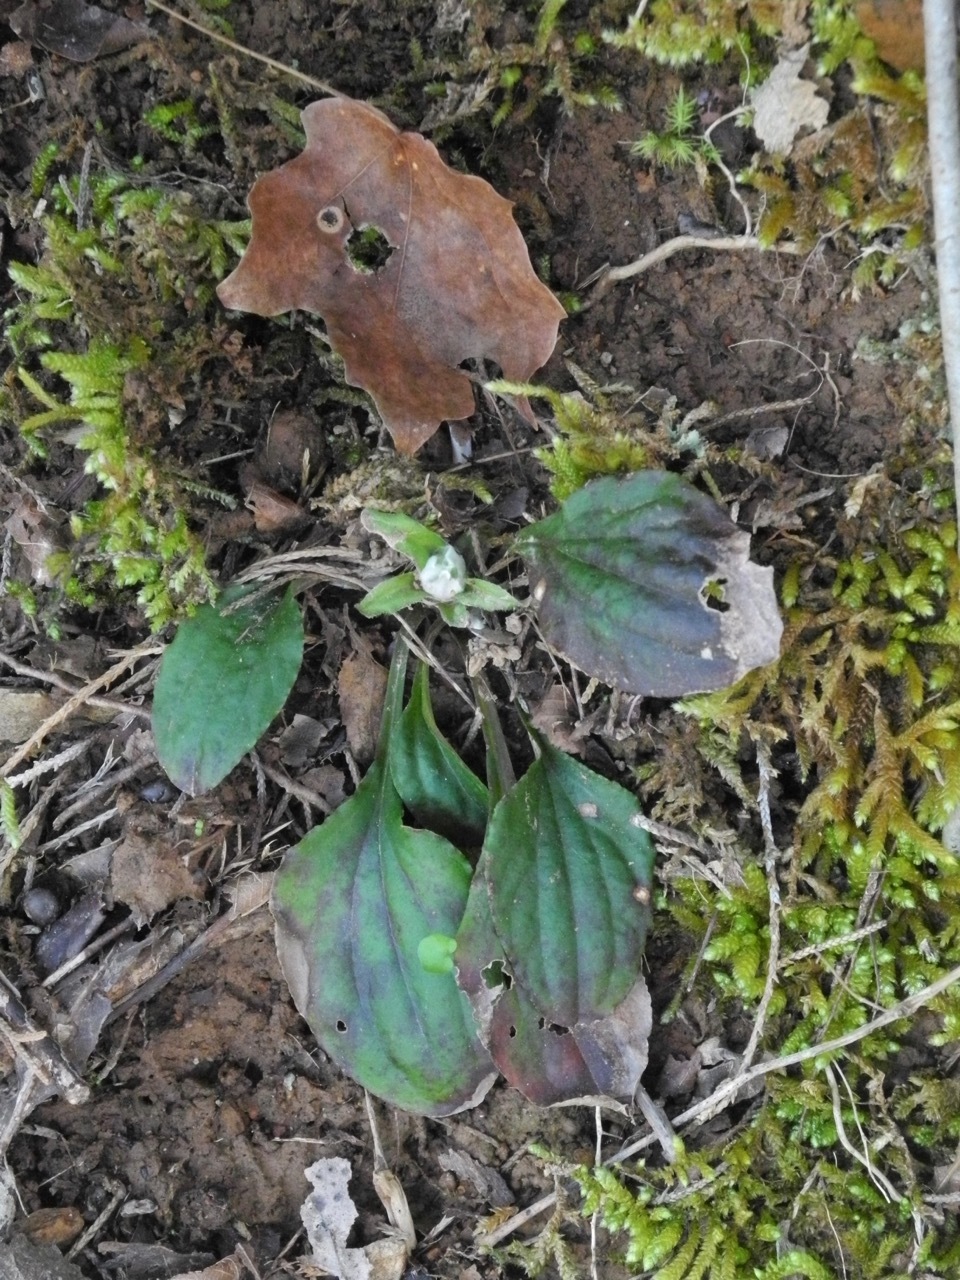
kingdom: Plantae
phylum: Tracheophyta
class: Magnoliopsida
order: Asterales
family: Asteraceae
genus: Antennaria
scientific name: Antennaria plantaginifolia
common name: Plantain-leaved pussytoes
